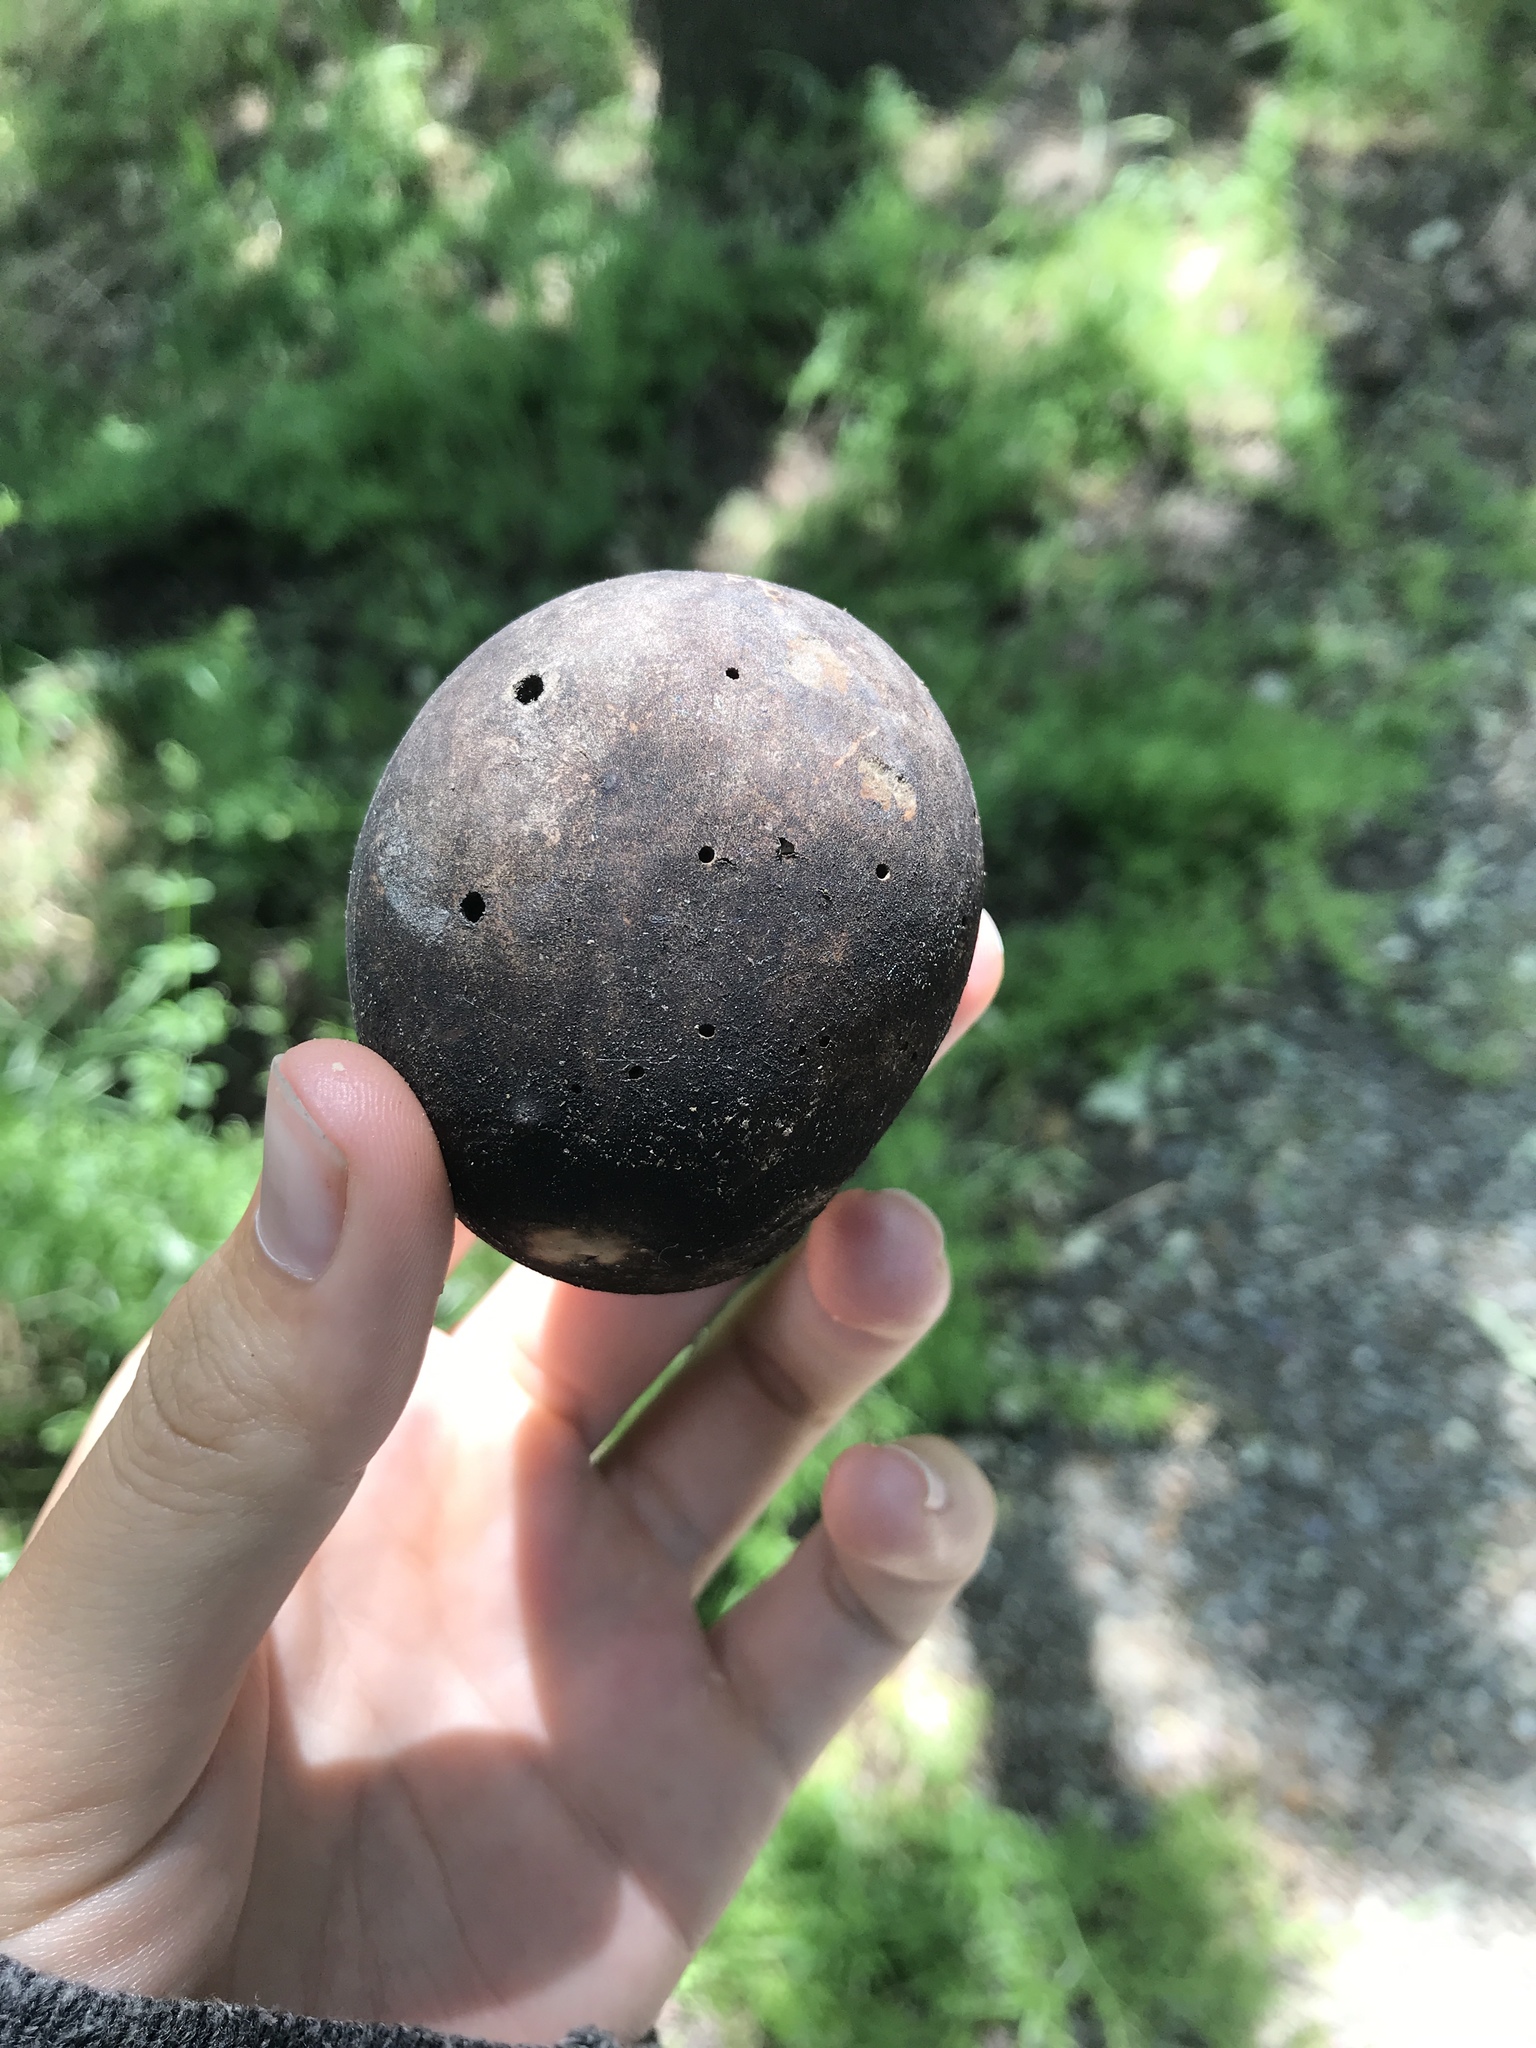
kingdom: Animalia
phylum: Arthropoda
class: Insecta
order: Hymenoptera
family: Cynipidae
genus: Andricus
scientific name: Andricus quercuscalifornicus
